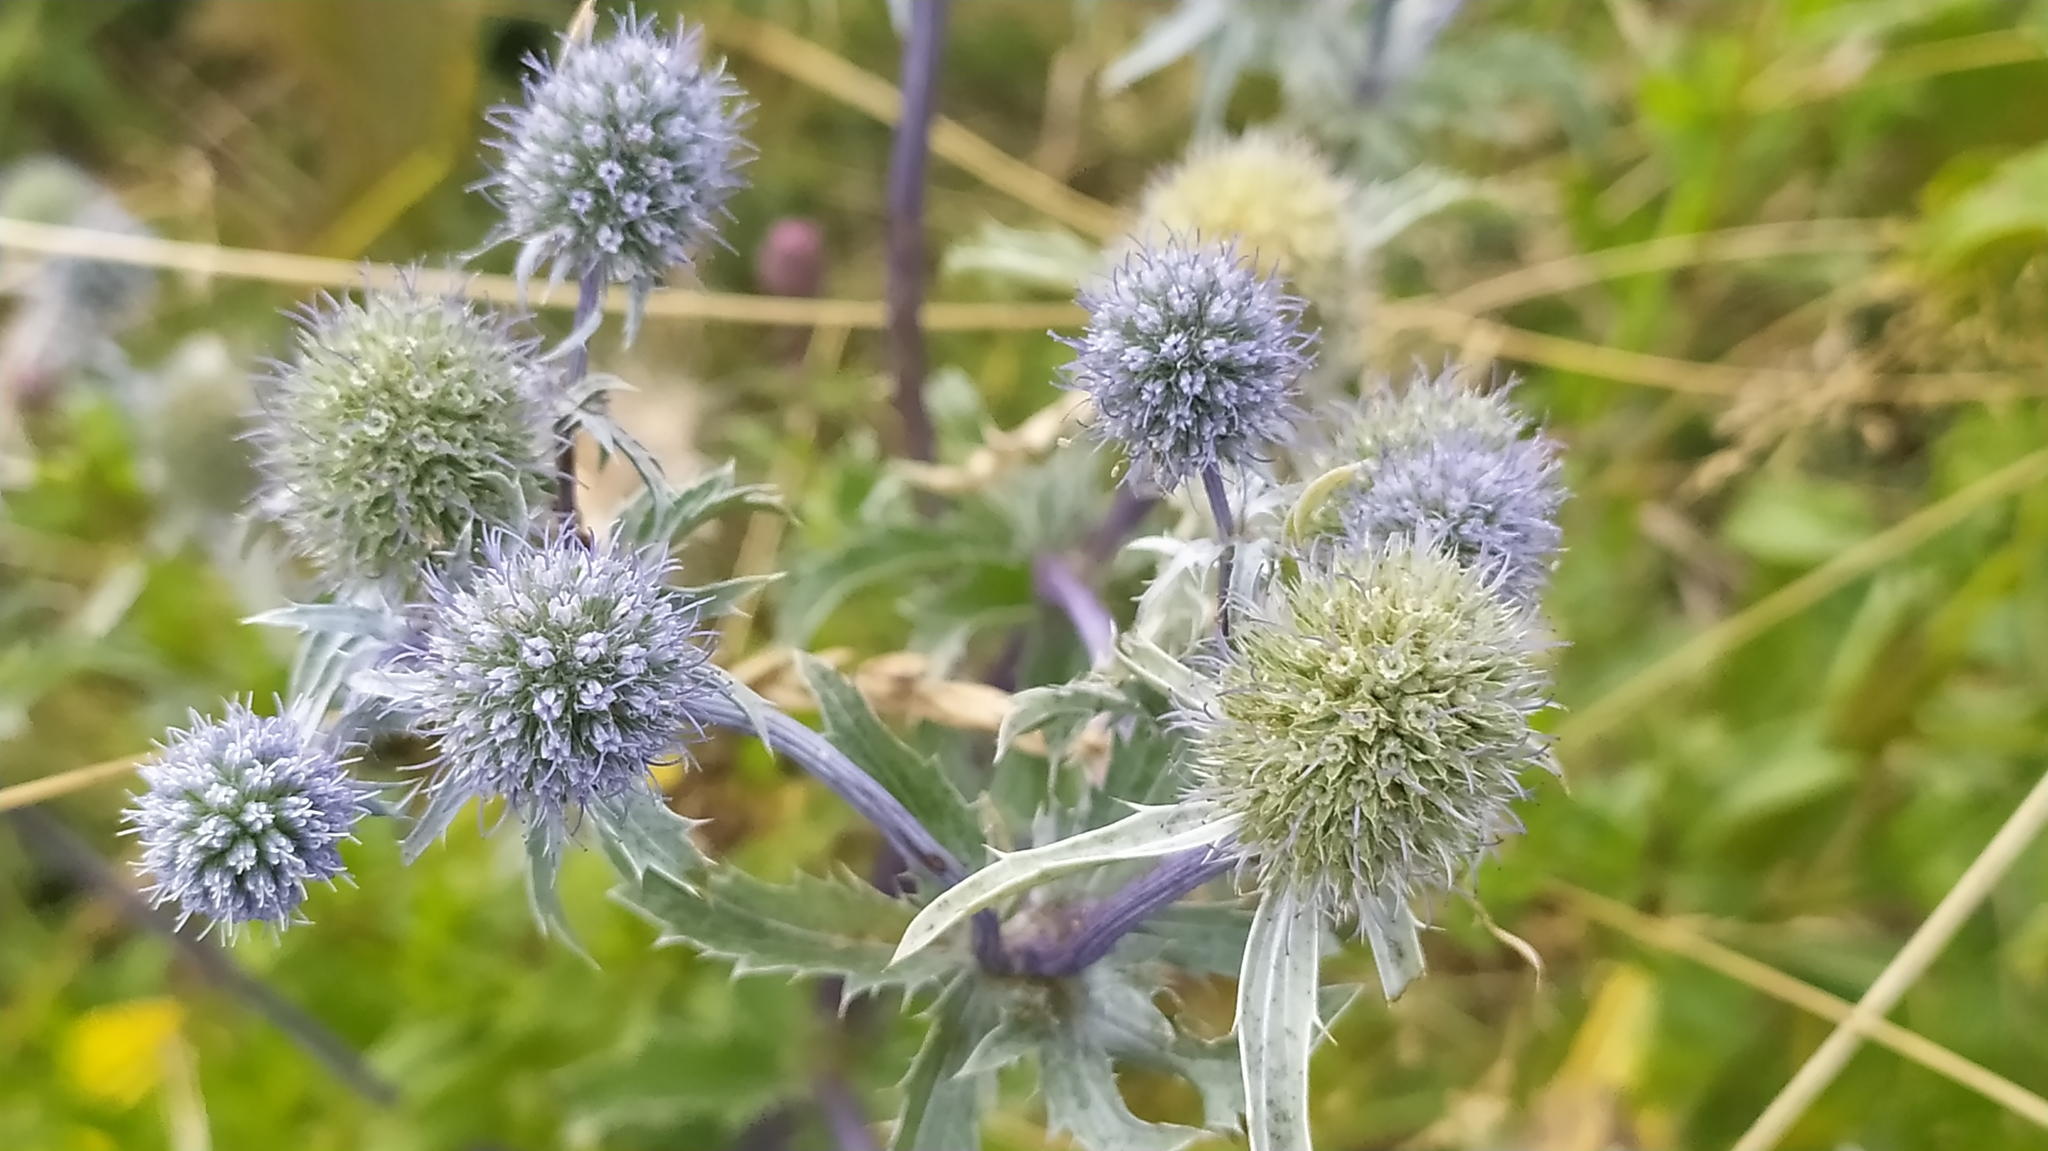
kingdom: Plantae
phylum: Tracheophyta
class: Magnoliopsida
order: Apiales
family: Apiaceae
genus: Eryngium
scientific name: Eryngium planum
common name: Blue eryngo
